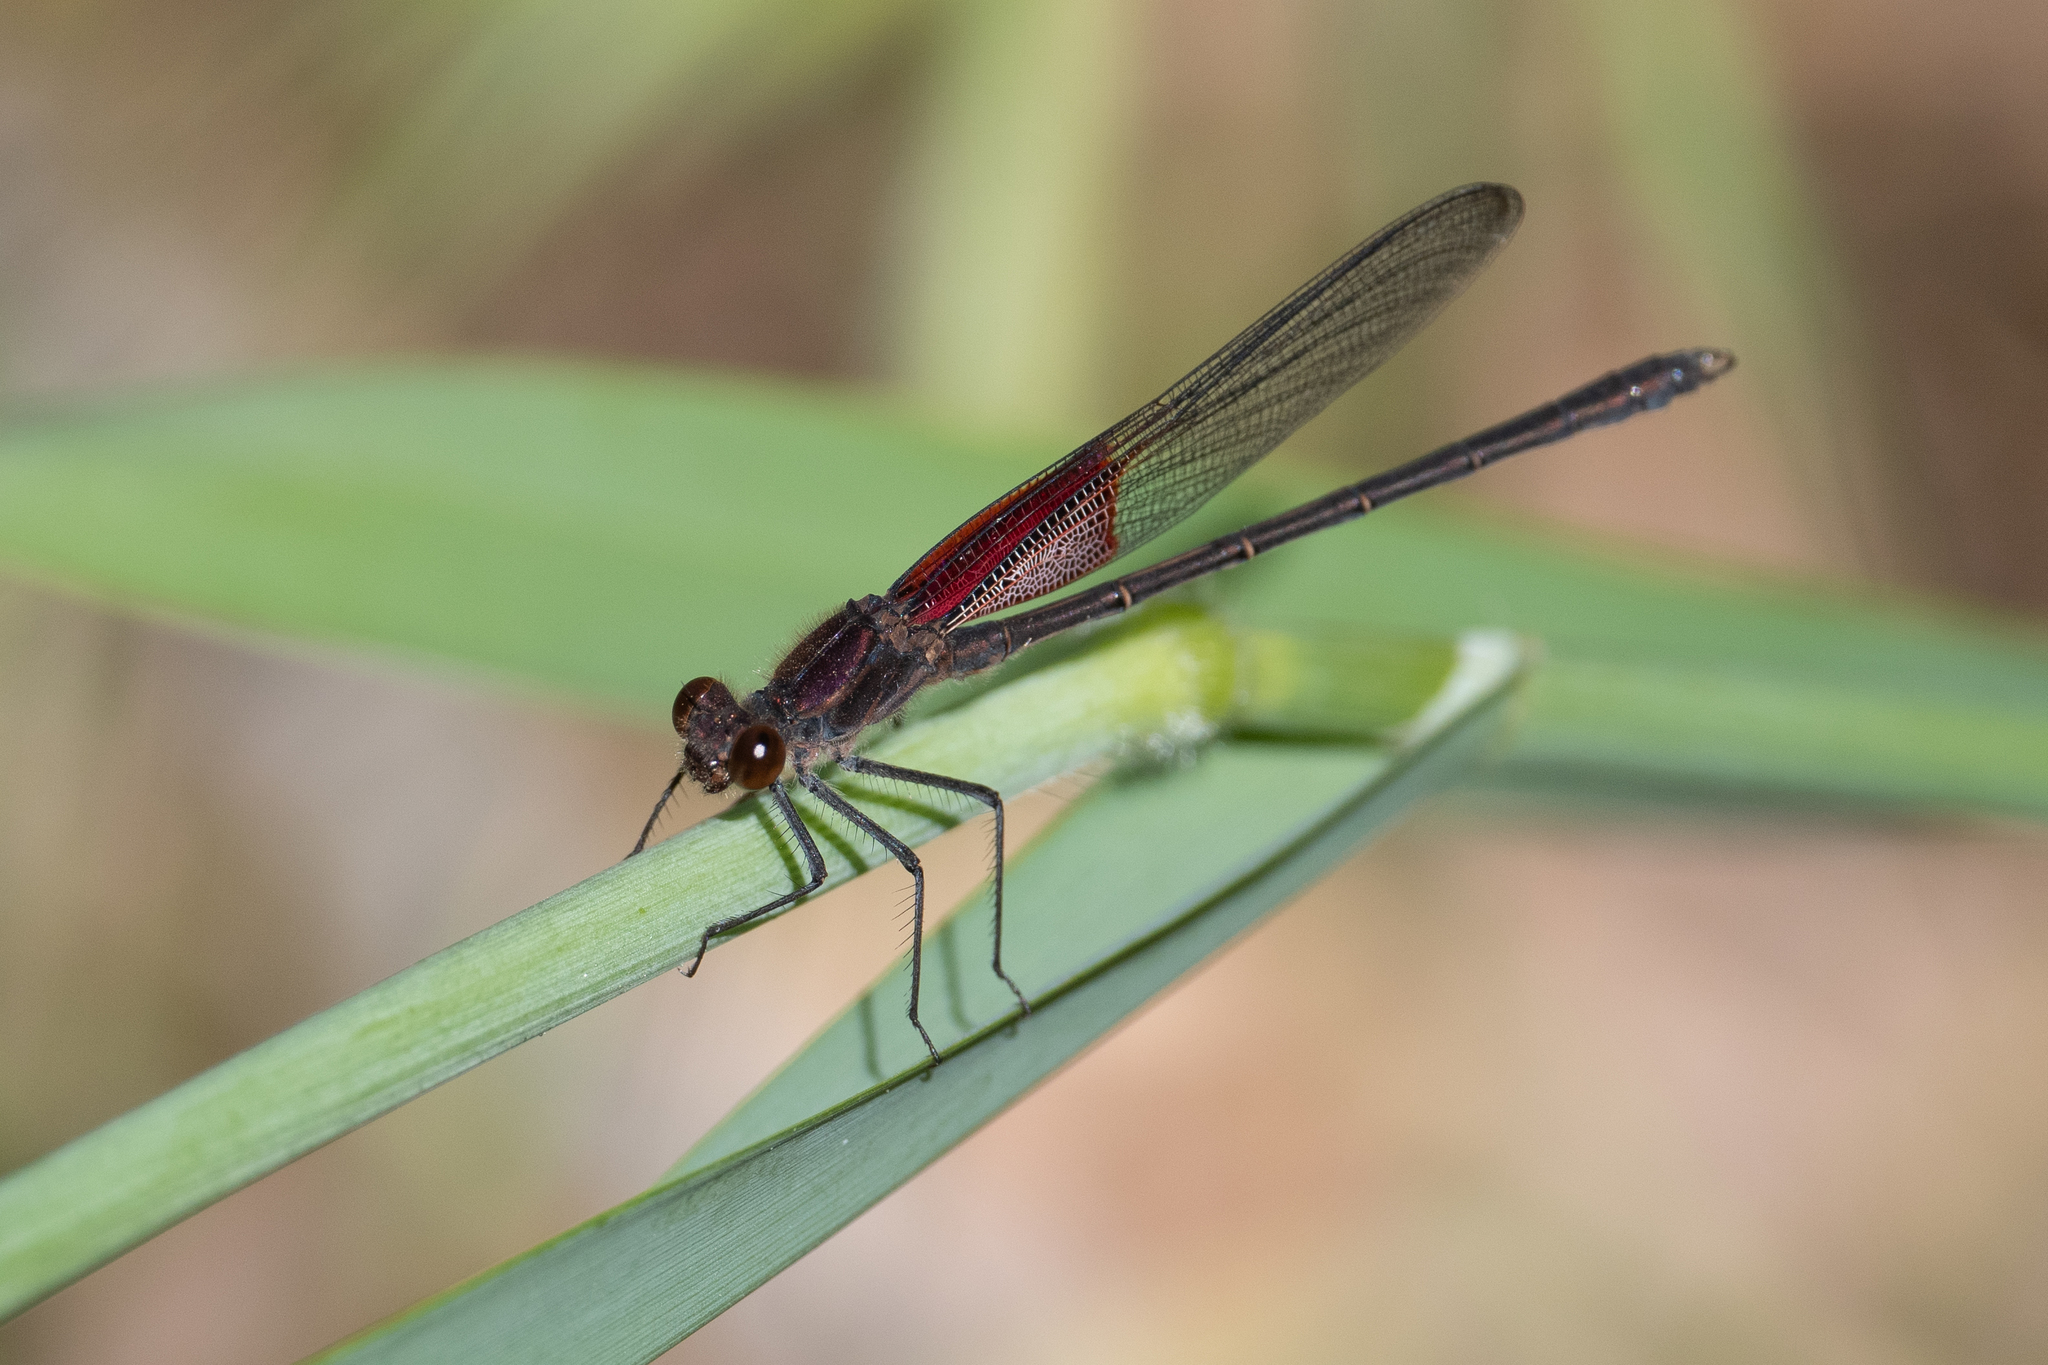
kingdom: Animalia
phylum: Arthropoda
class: Insecta
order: Odonata
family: Calopterygidae
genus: Hetaerina
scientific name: Hetaerina americana
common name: American rubyspot
